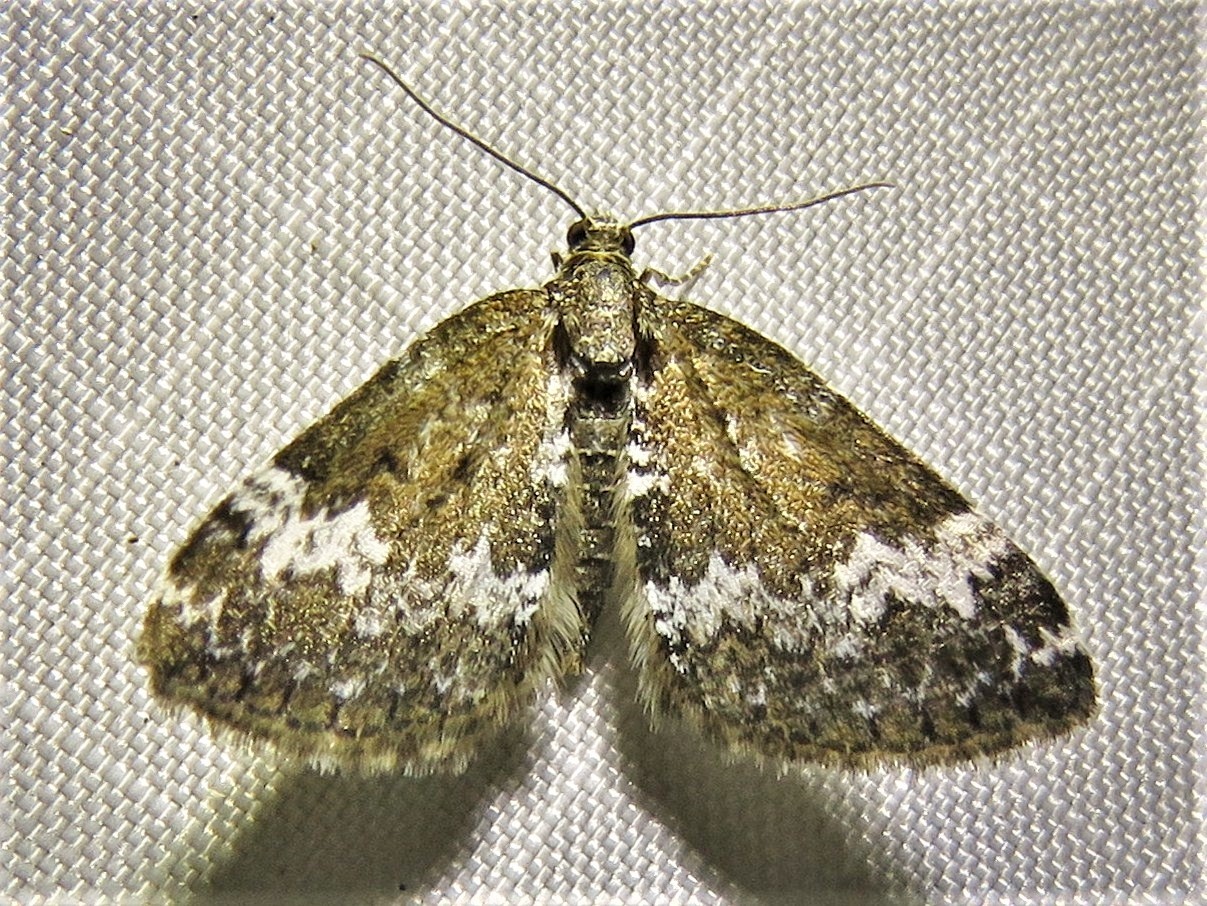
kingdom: Animalia
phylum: Arthropoda
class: Insecta
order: Lepidoptera
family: Geometridae
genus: Perizoma
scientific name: Perizoma alchemillata
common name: Small rivulet
